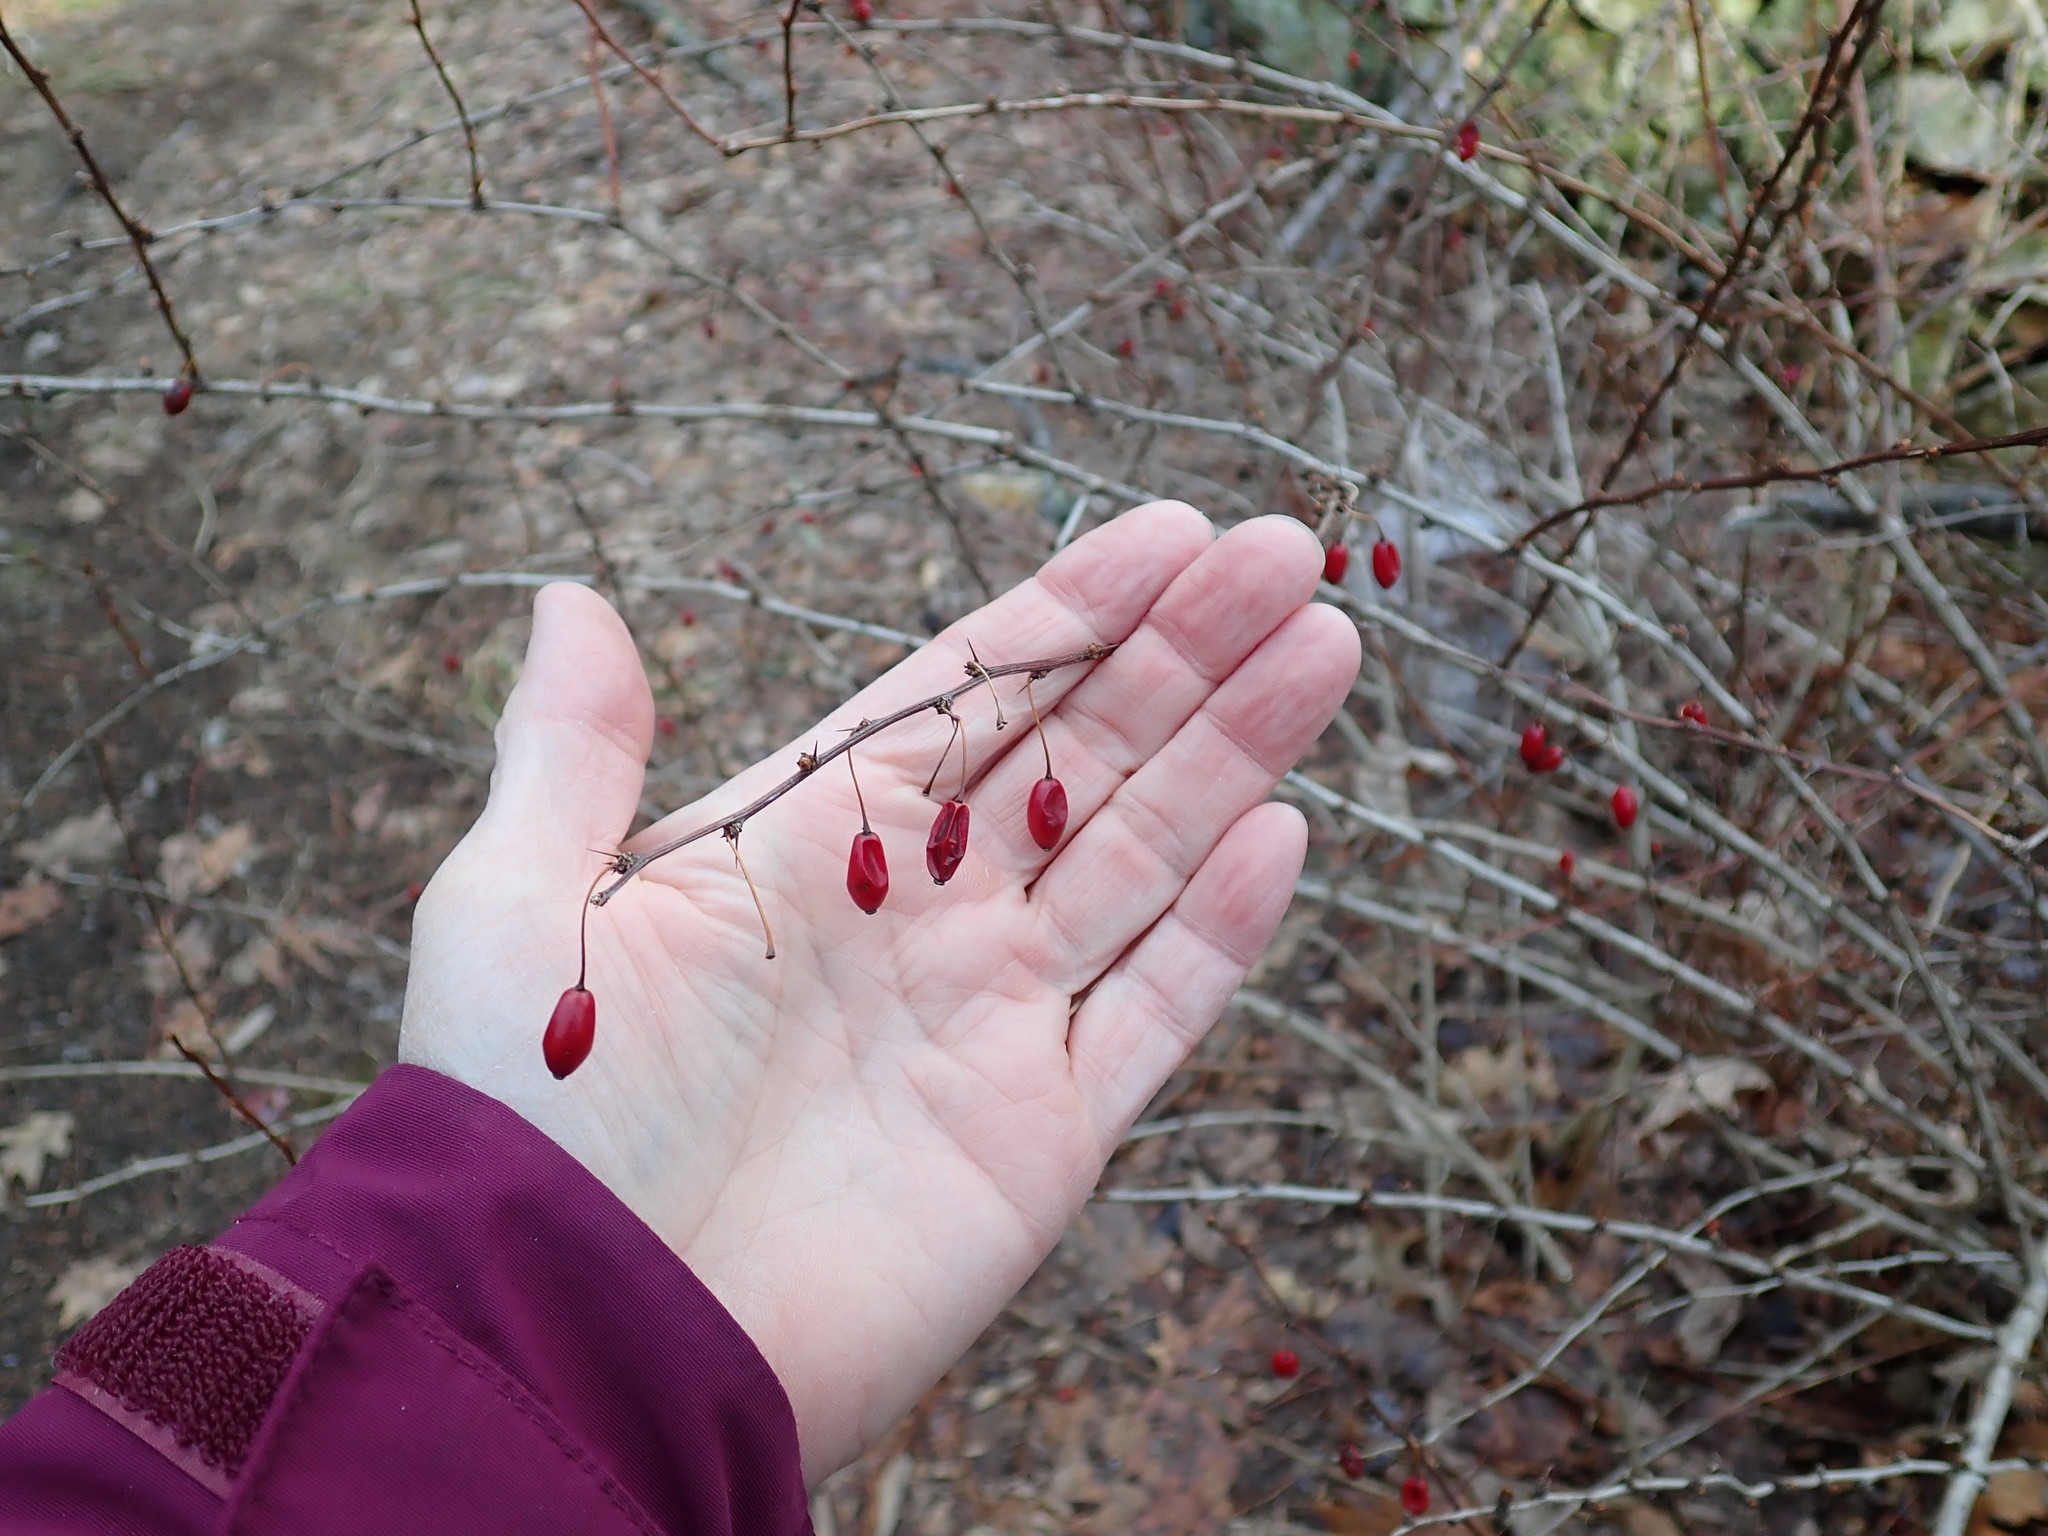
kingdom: Plantae
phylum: Tracheophyta
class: Magnoliopsida
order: Ranunculales
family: Berberidaceae
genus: Berberis
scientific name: Berberis thunbergii
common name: Japanese barberry
